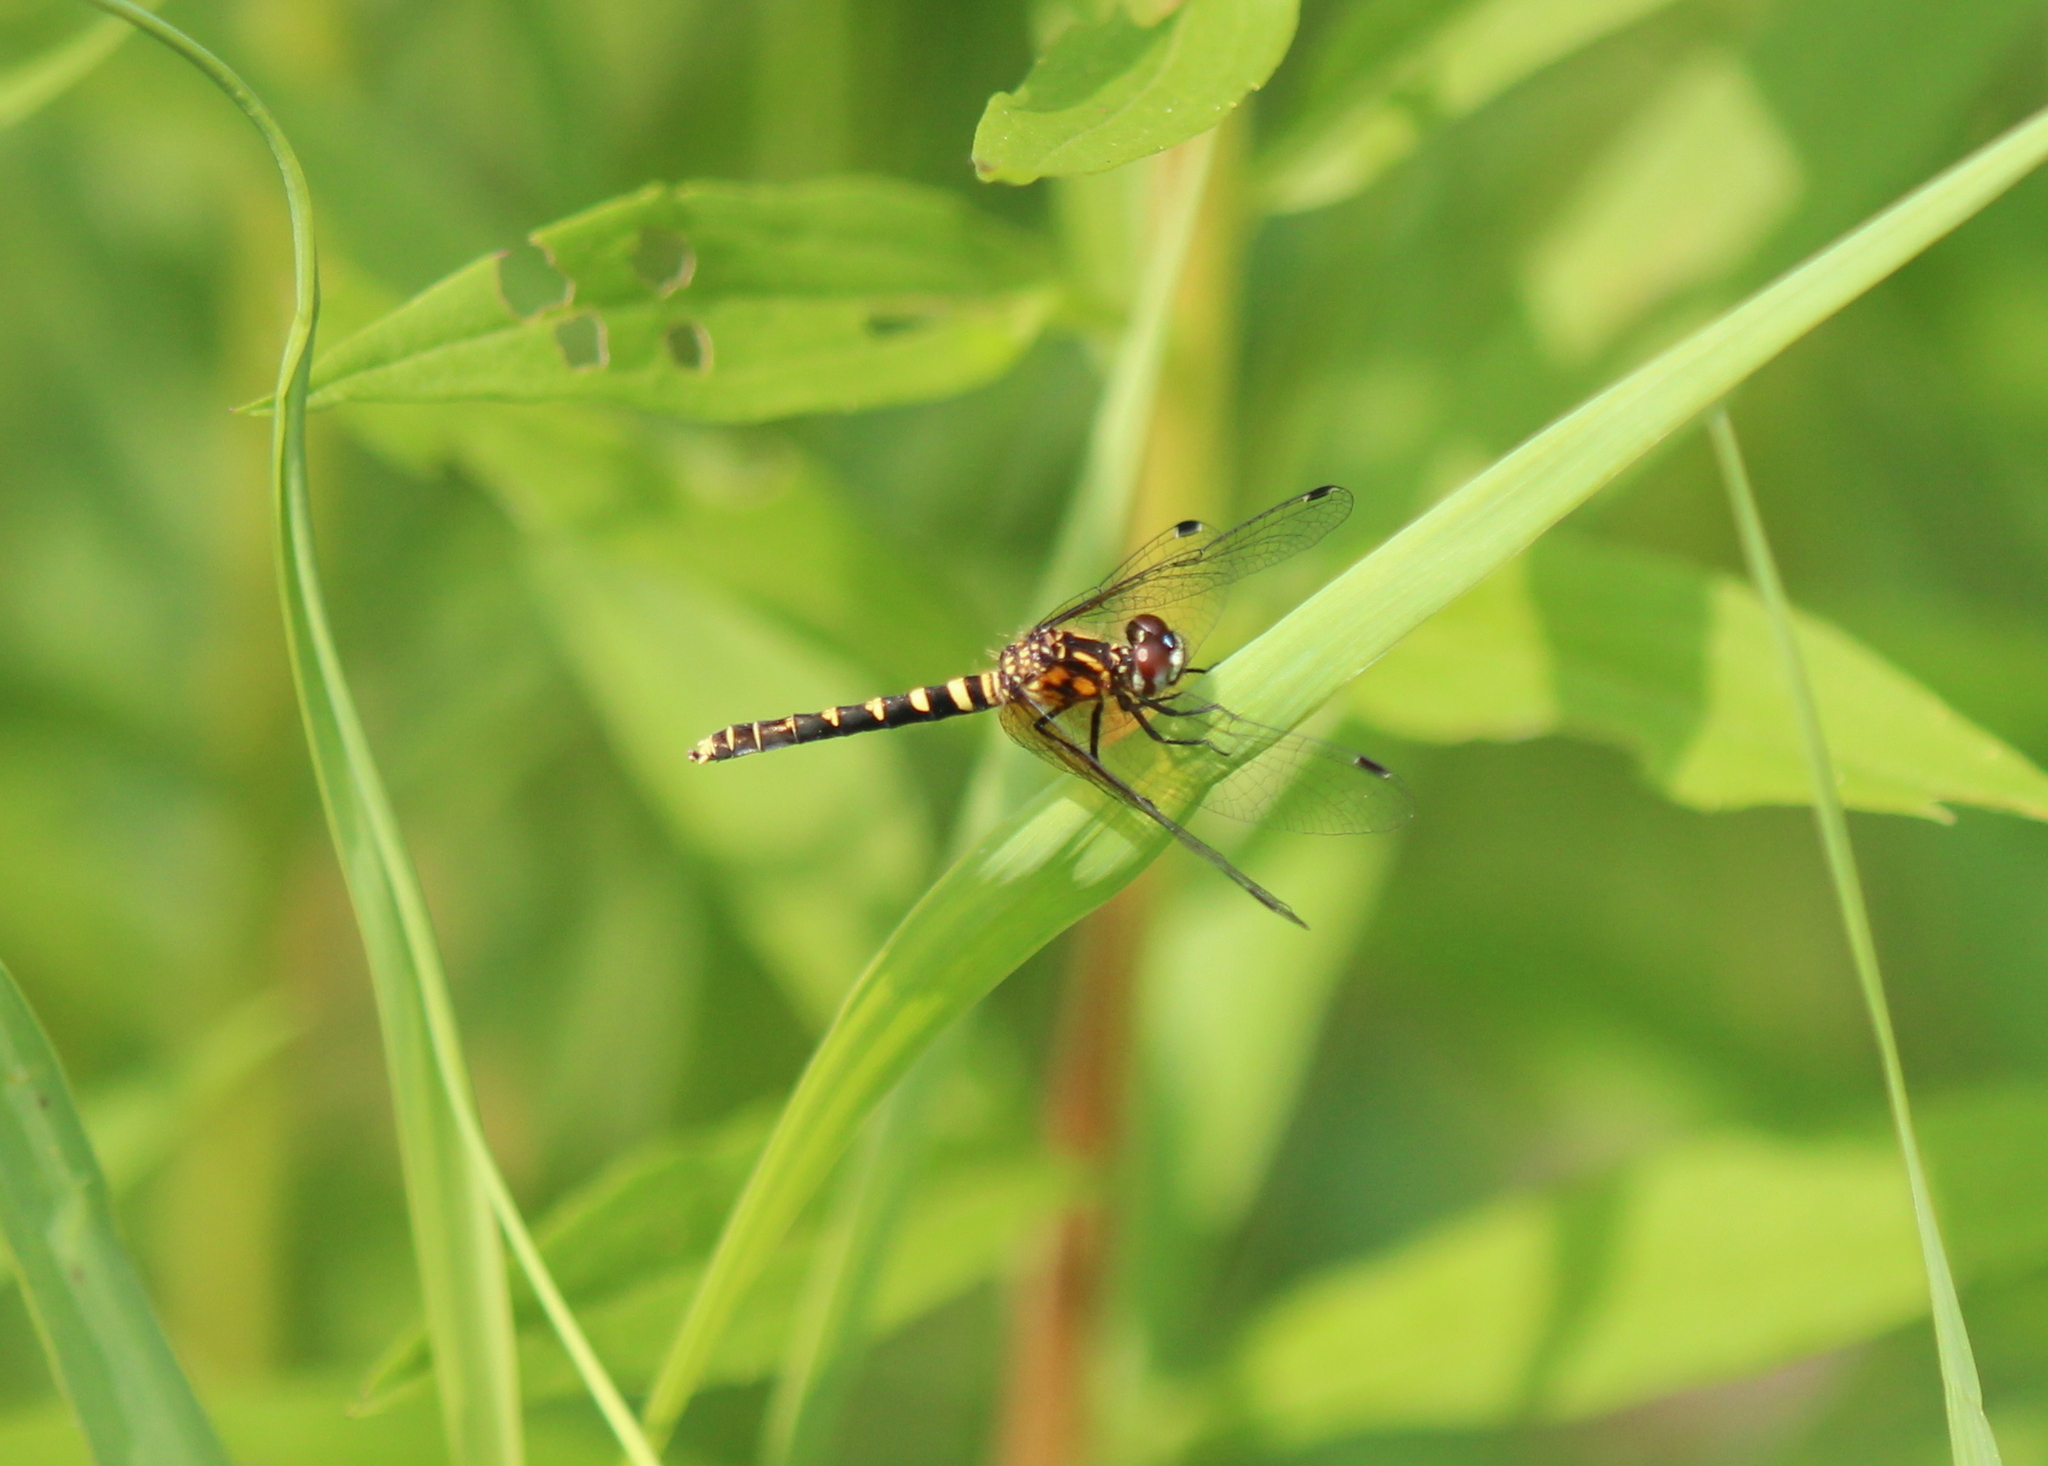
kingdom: Animalia
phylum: Arthropoda
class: Insecta
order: Odonata
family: Libellulidae
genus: Nannothemis
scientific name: Nannothemis bella
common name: Elfin skimmer
